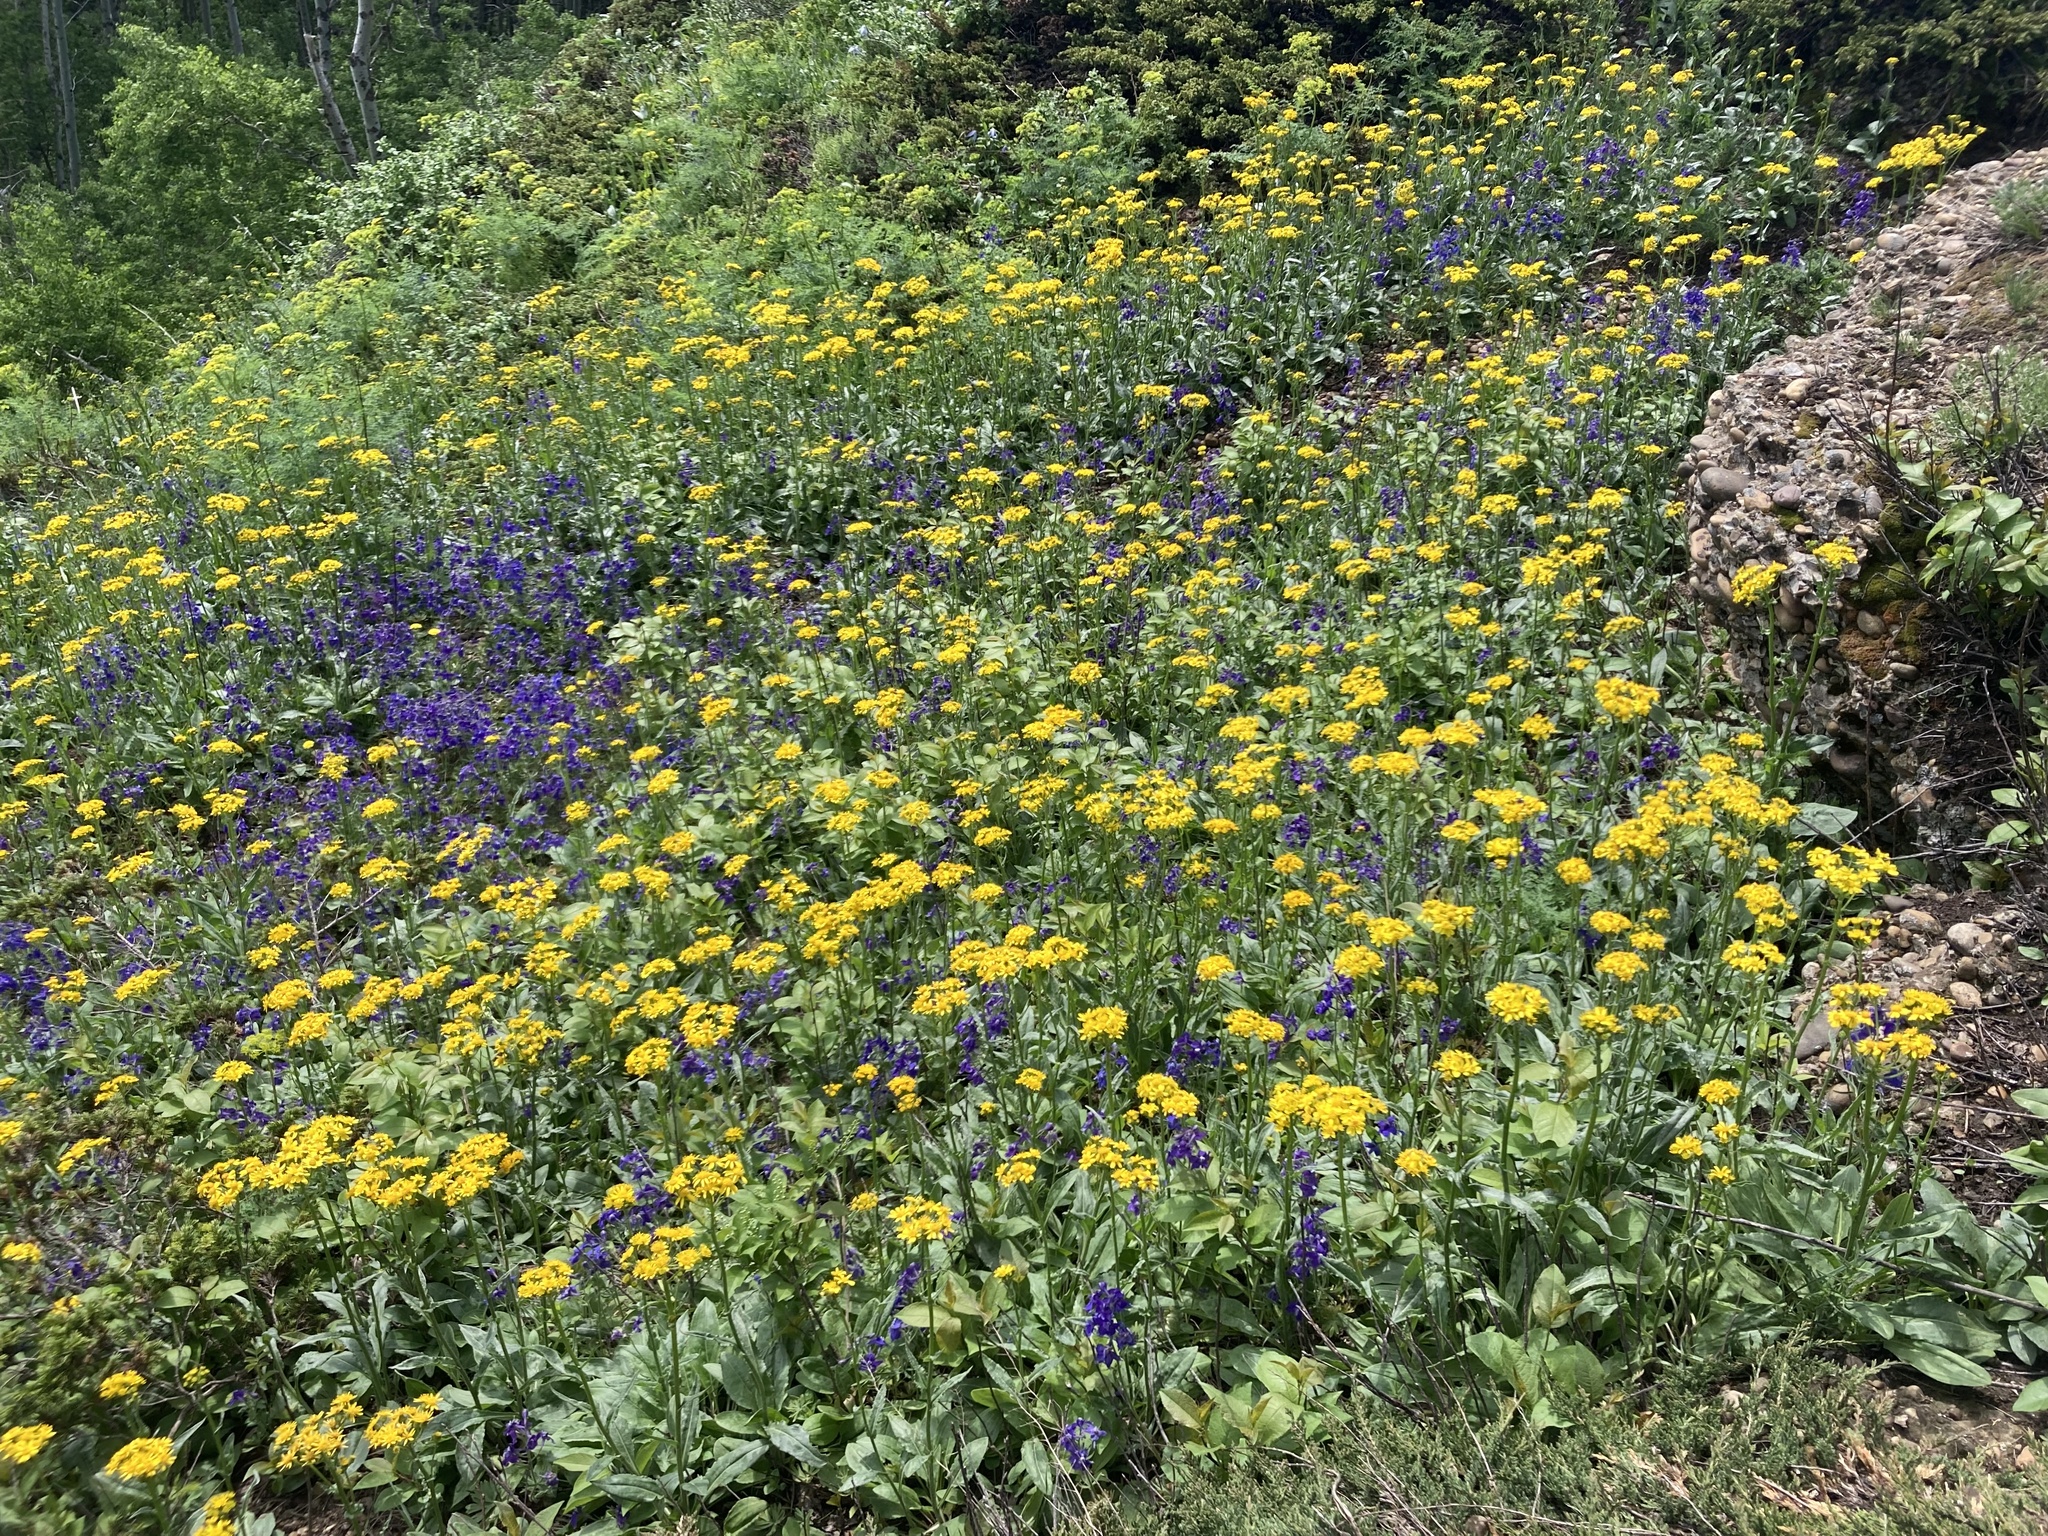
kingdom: Plantae
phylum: Tracheophyta
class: Magnoliopsida
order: Asterales
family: Asteraceae
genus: Senecio
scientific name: Senecio integerrimus
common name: Gaugeplant
